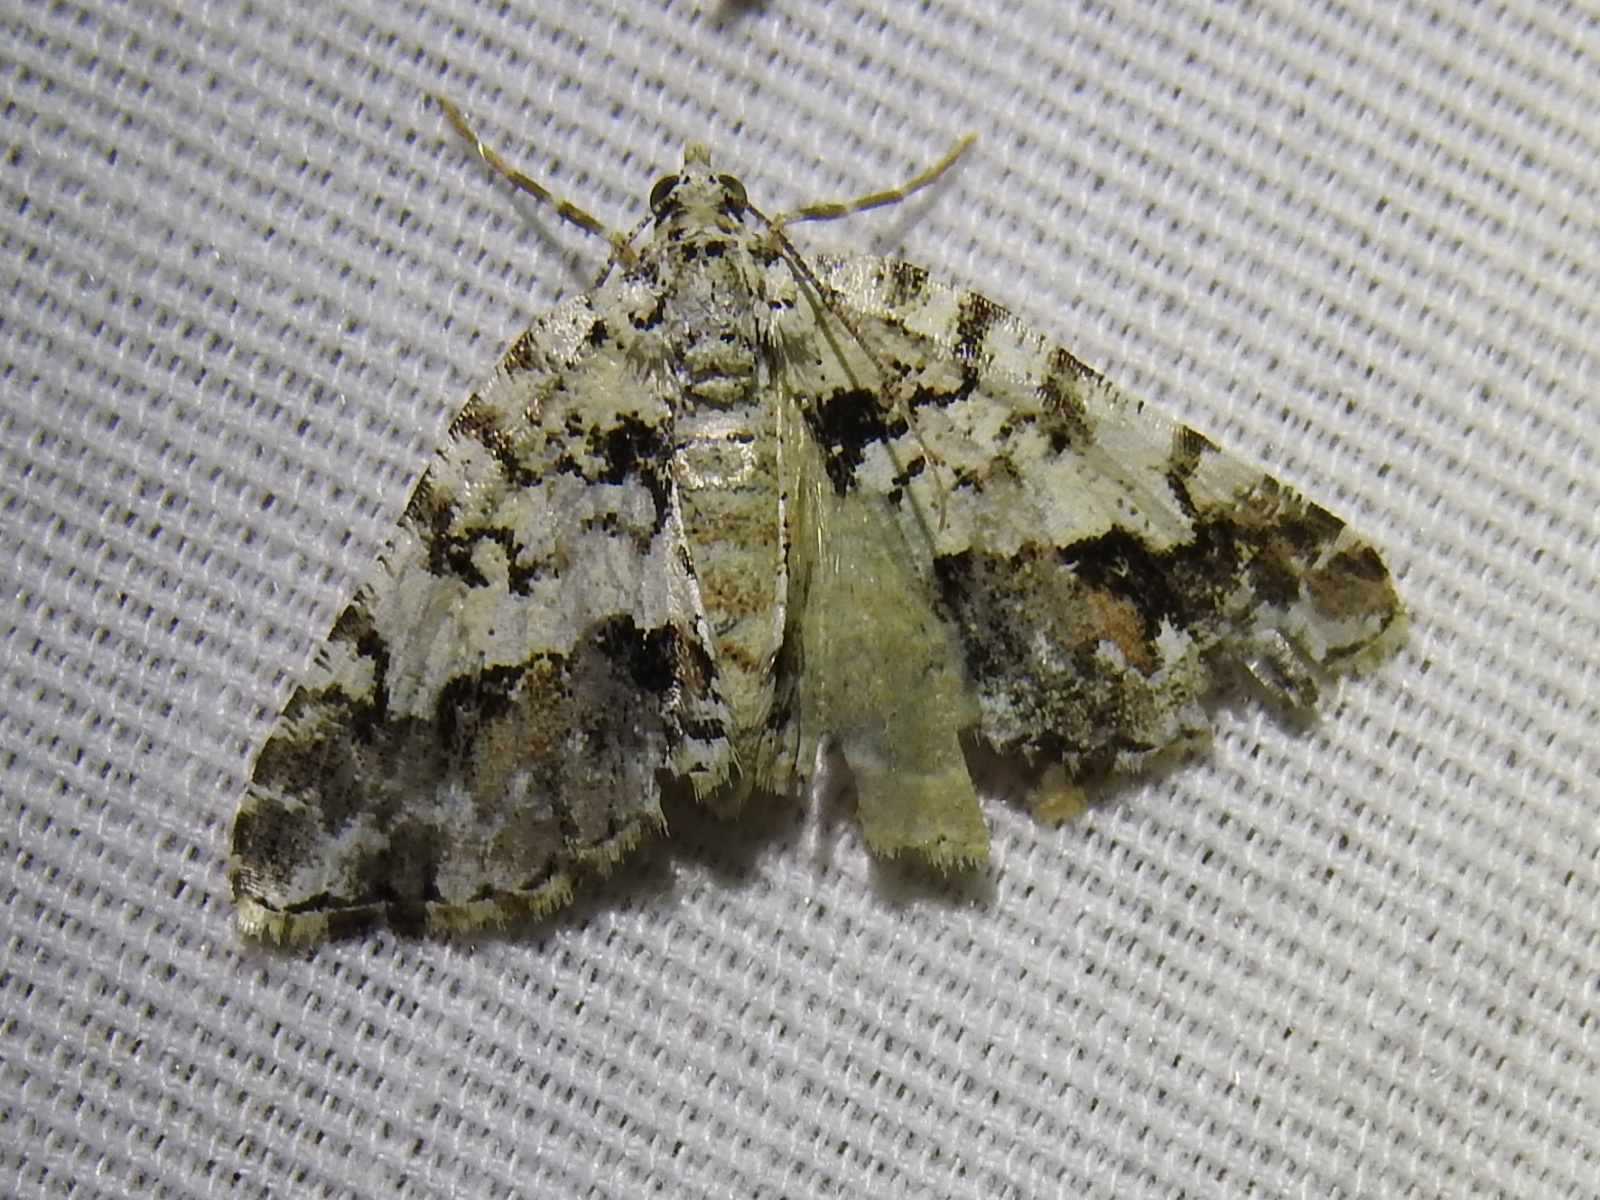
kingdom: Animalia
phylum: Arthropoda
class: Insecta
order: Lepidoptera
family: Geometridae
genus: Macaria
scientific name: Macaria graphidaria
